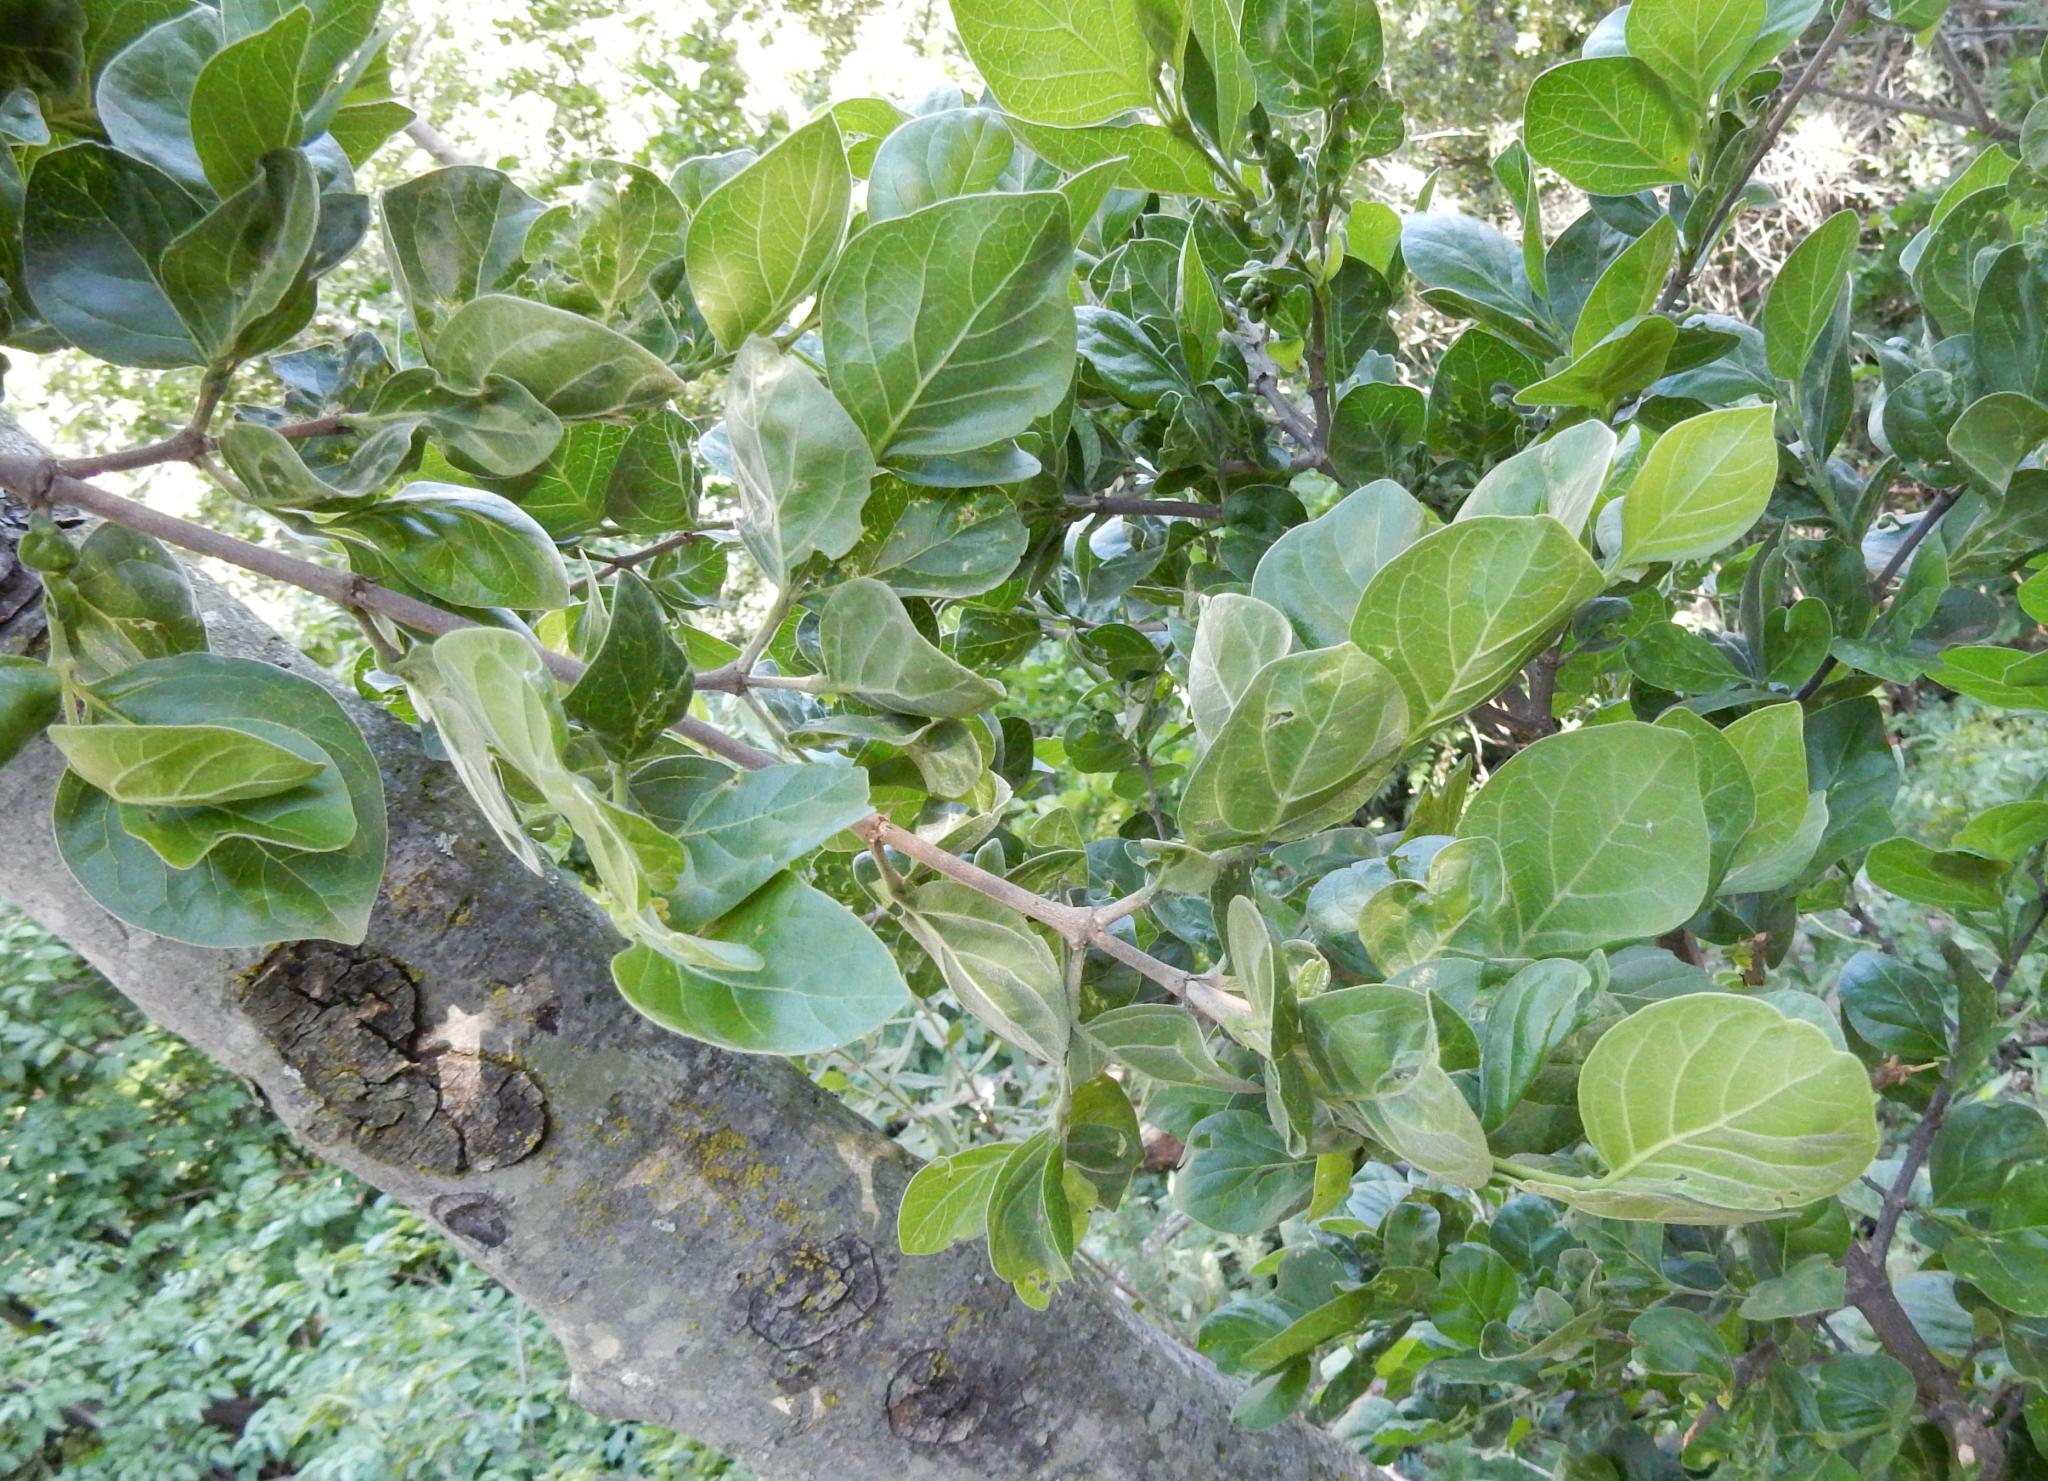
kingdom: Plantae
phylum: Tracheophyta
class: Magnoliopsida
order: Gentianales
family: Rubiaceae
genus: Afrocanthium
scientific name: Afrocanthium mundianum
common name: Rock-alder
